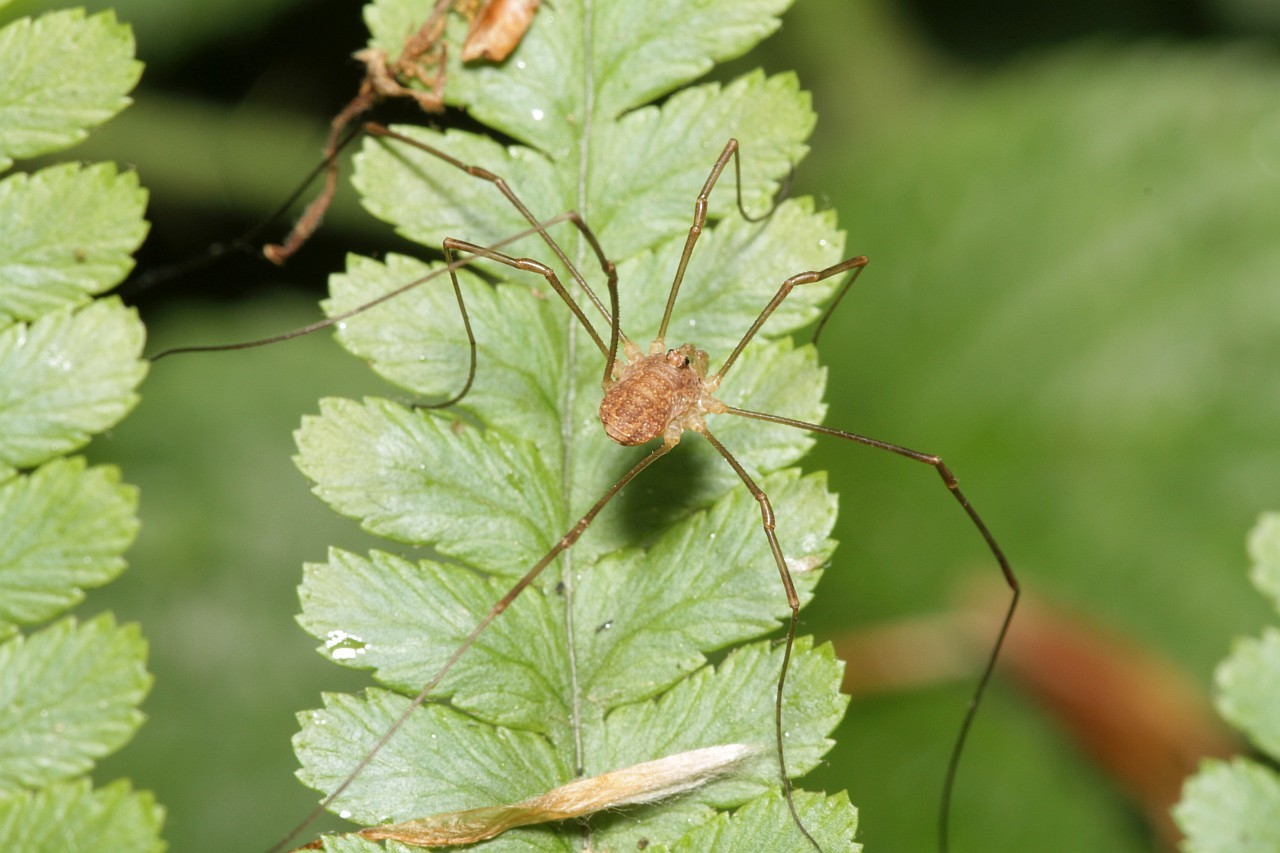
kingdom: Animalia
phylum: Arthropoda
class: Arachnida
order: Opiliones
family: Phalangiidae
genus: Rilaena
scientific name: Rilaena triangularis
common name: Spring harvestman
